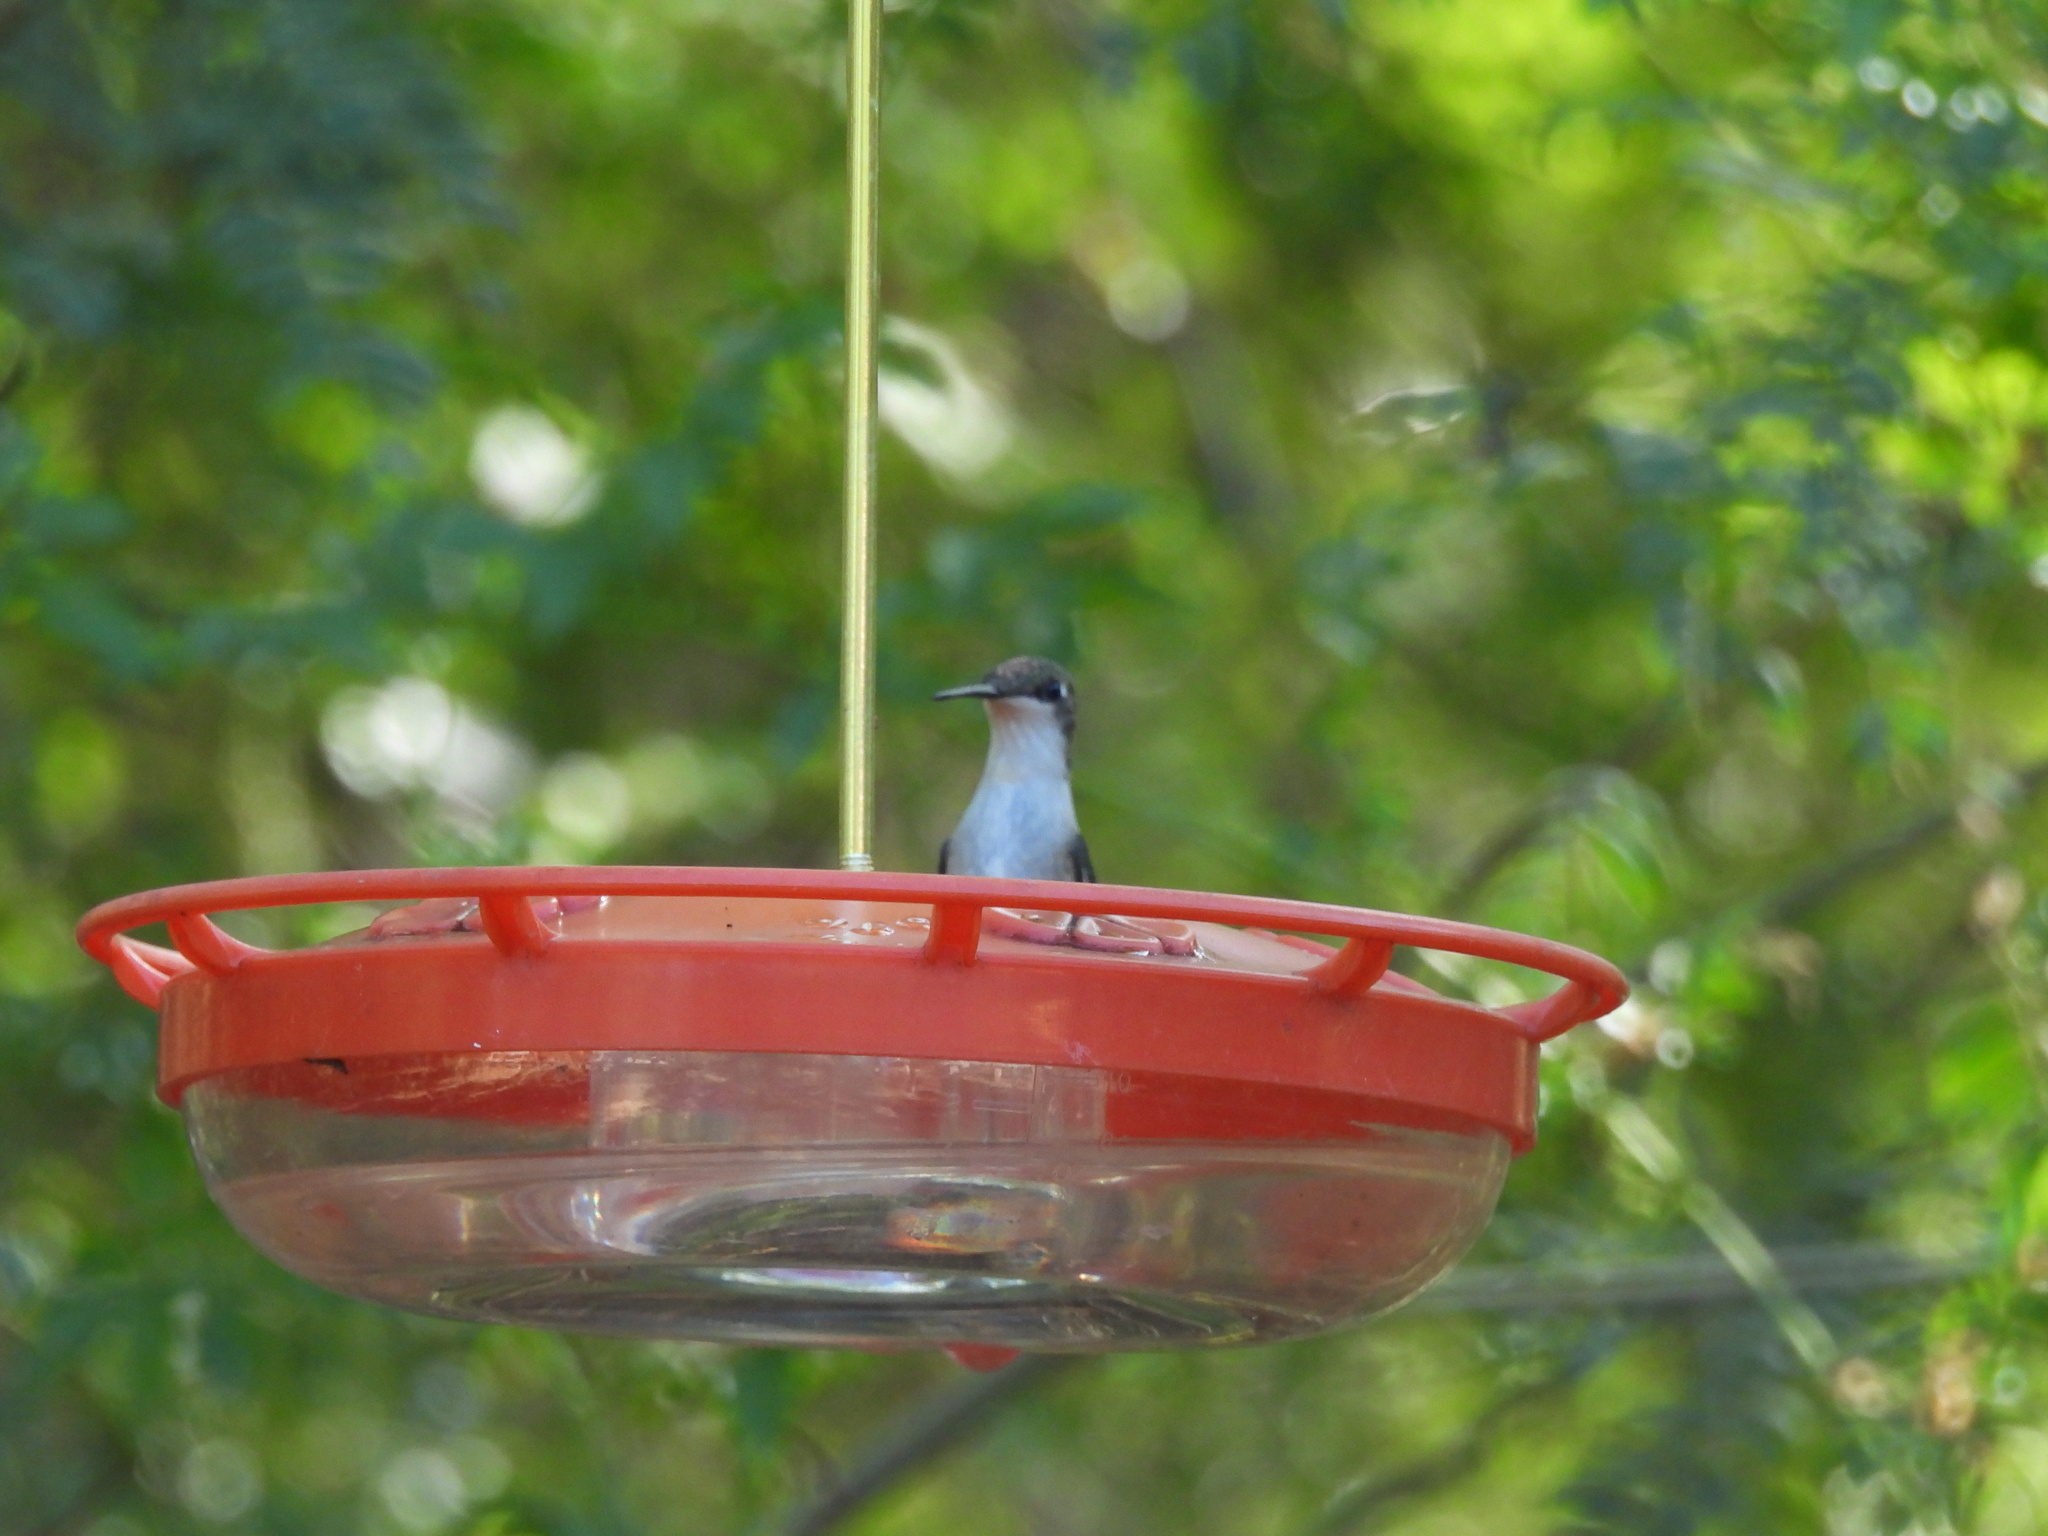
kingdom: Animalia
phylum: Chordata
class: Aves
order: Apodiformes
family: Trochilidae
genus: Archilochus
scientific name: Archilochus
